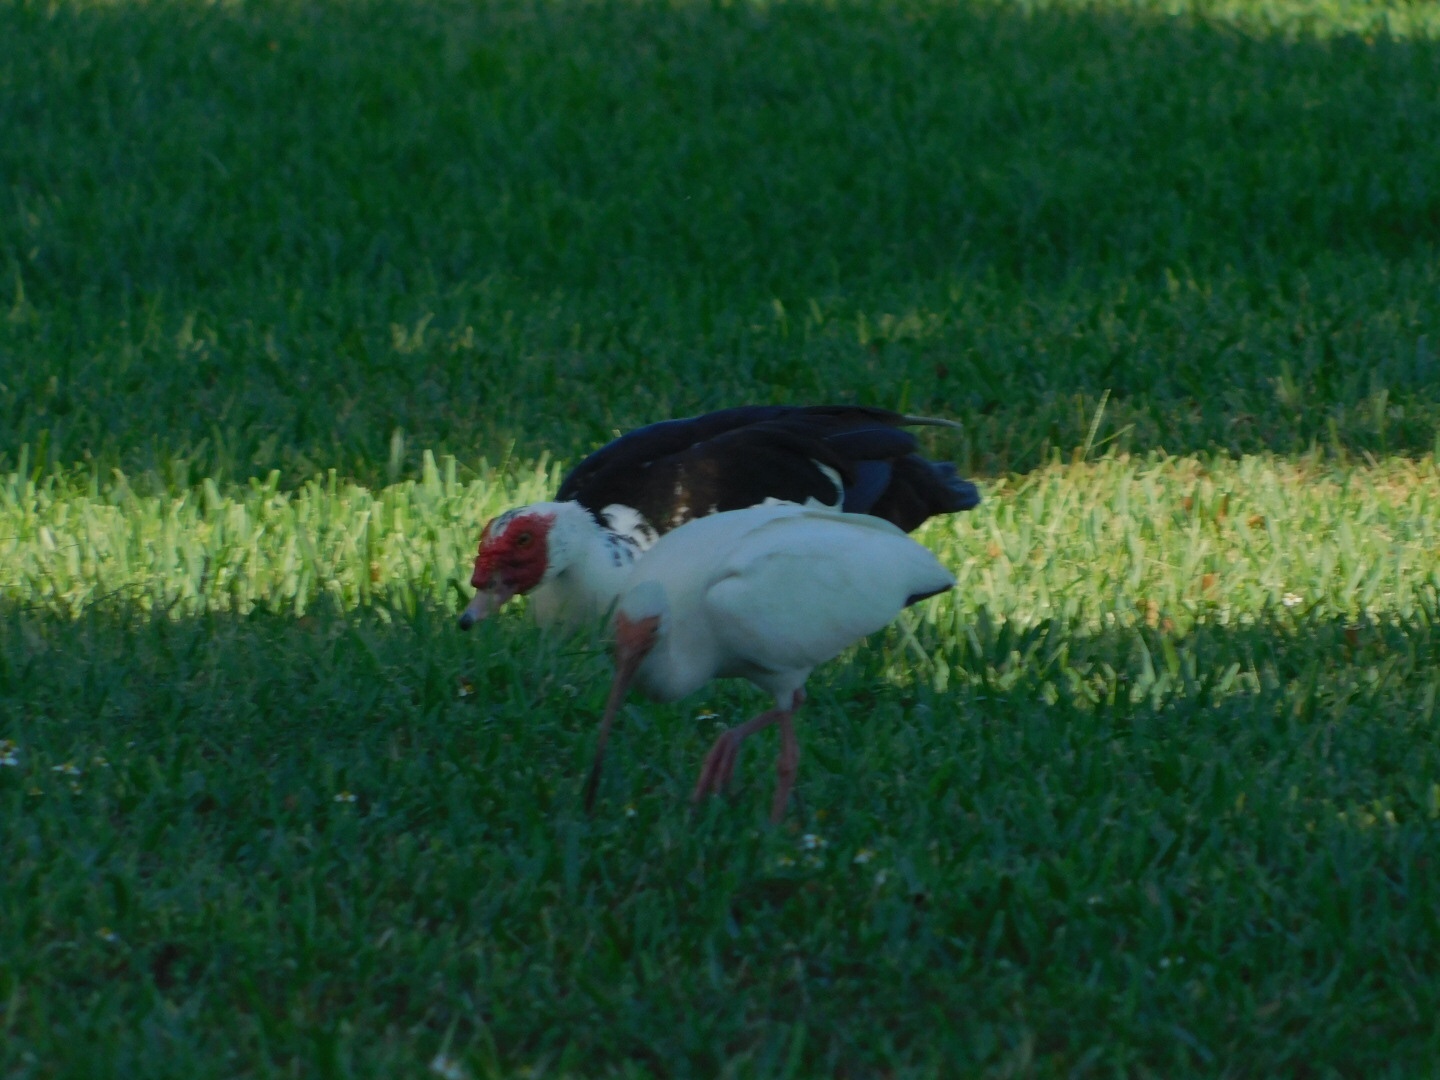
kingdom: Animalia
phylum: Chordata
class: Aves
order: Pelecaniformes
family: Threskiornithidae
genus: Eudocimus
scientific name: Eudocimus albus
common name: White ibis
